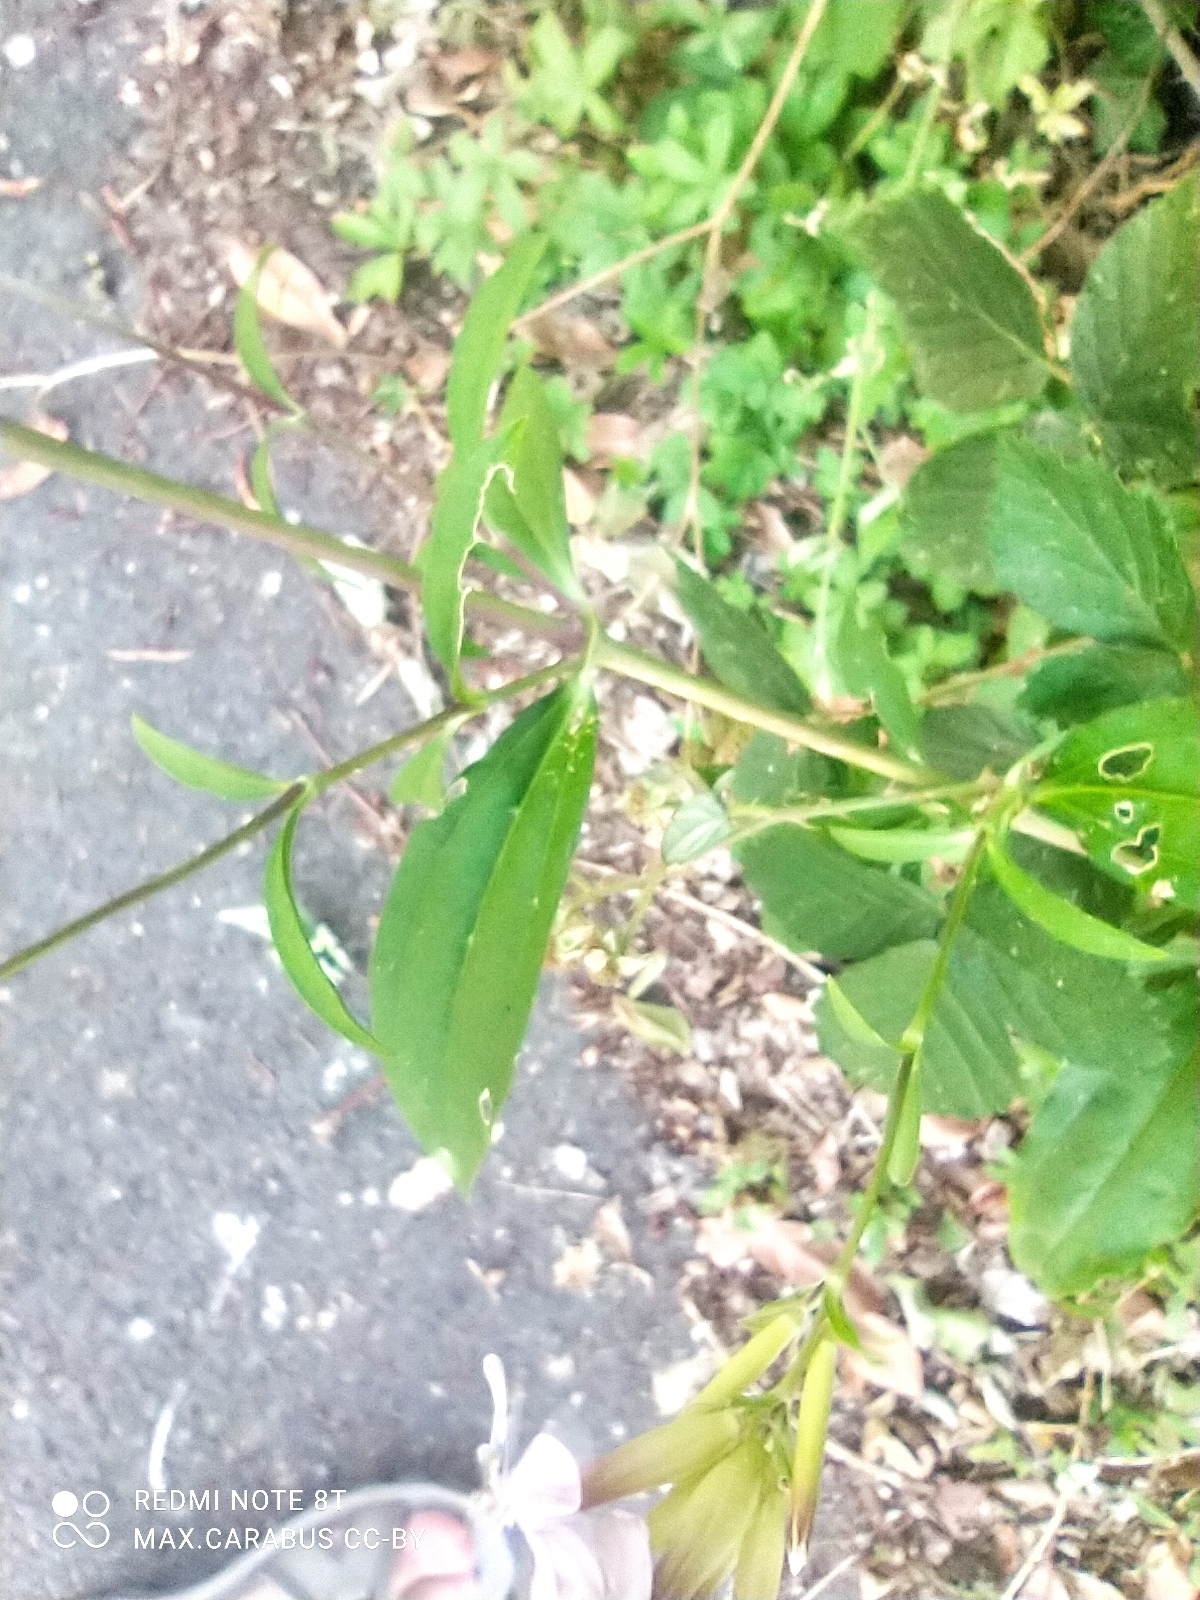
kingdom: Plantae
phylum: Tracheophyta
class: Magnoliopsida
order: Caryophyllales
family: Caryophyllaceae
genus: Saponaria
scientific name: Saponaria officinalis
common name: Soapwort
